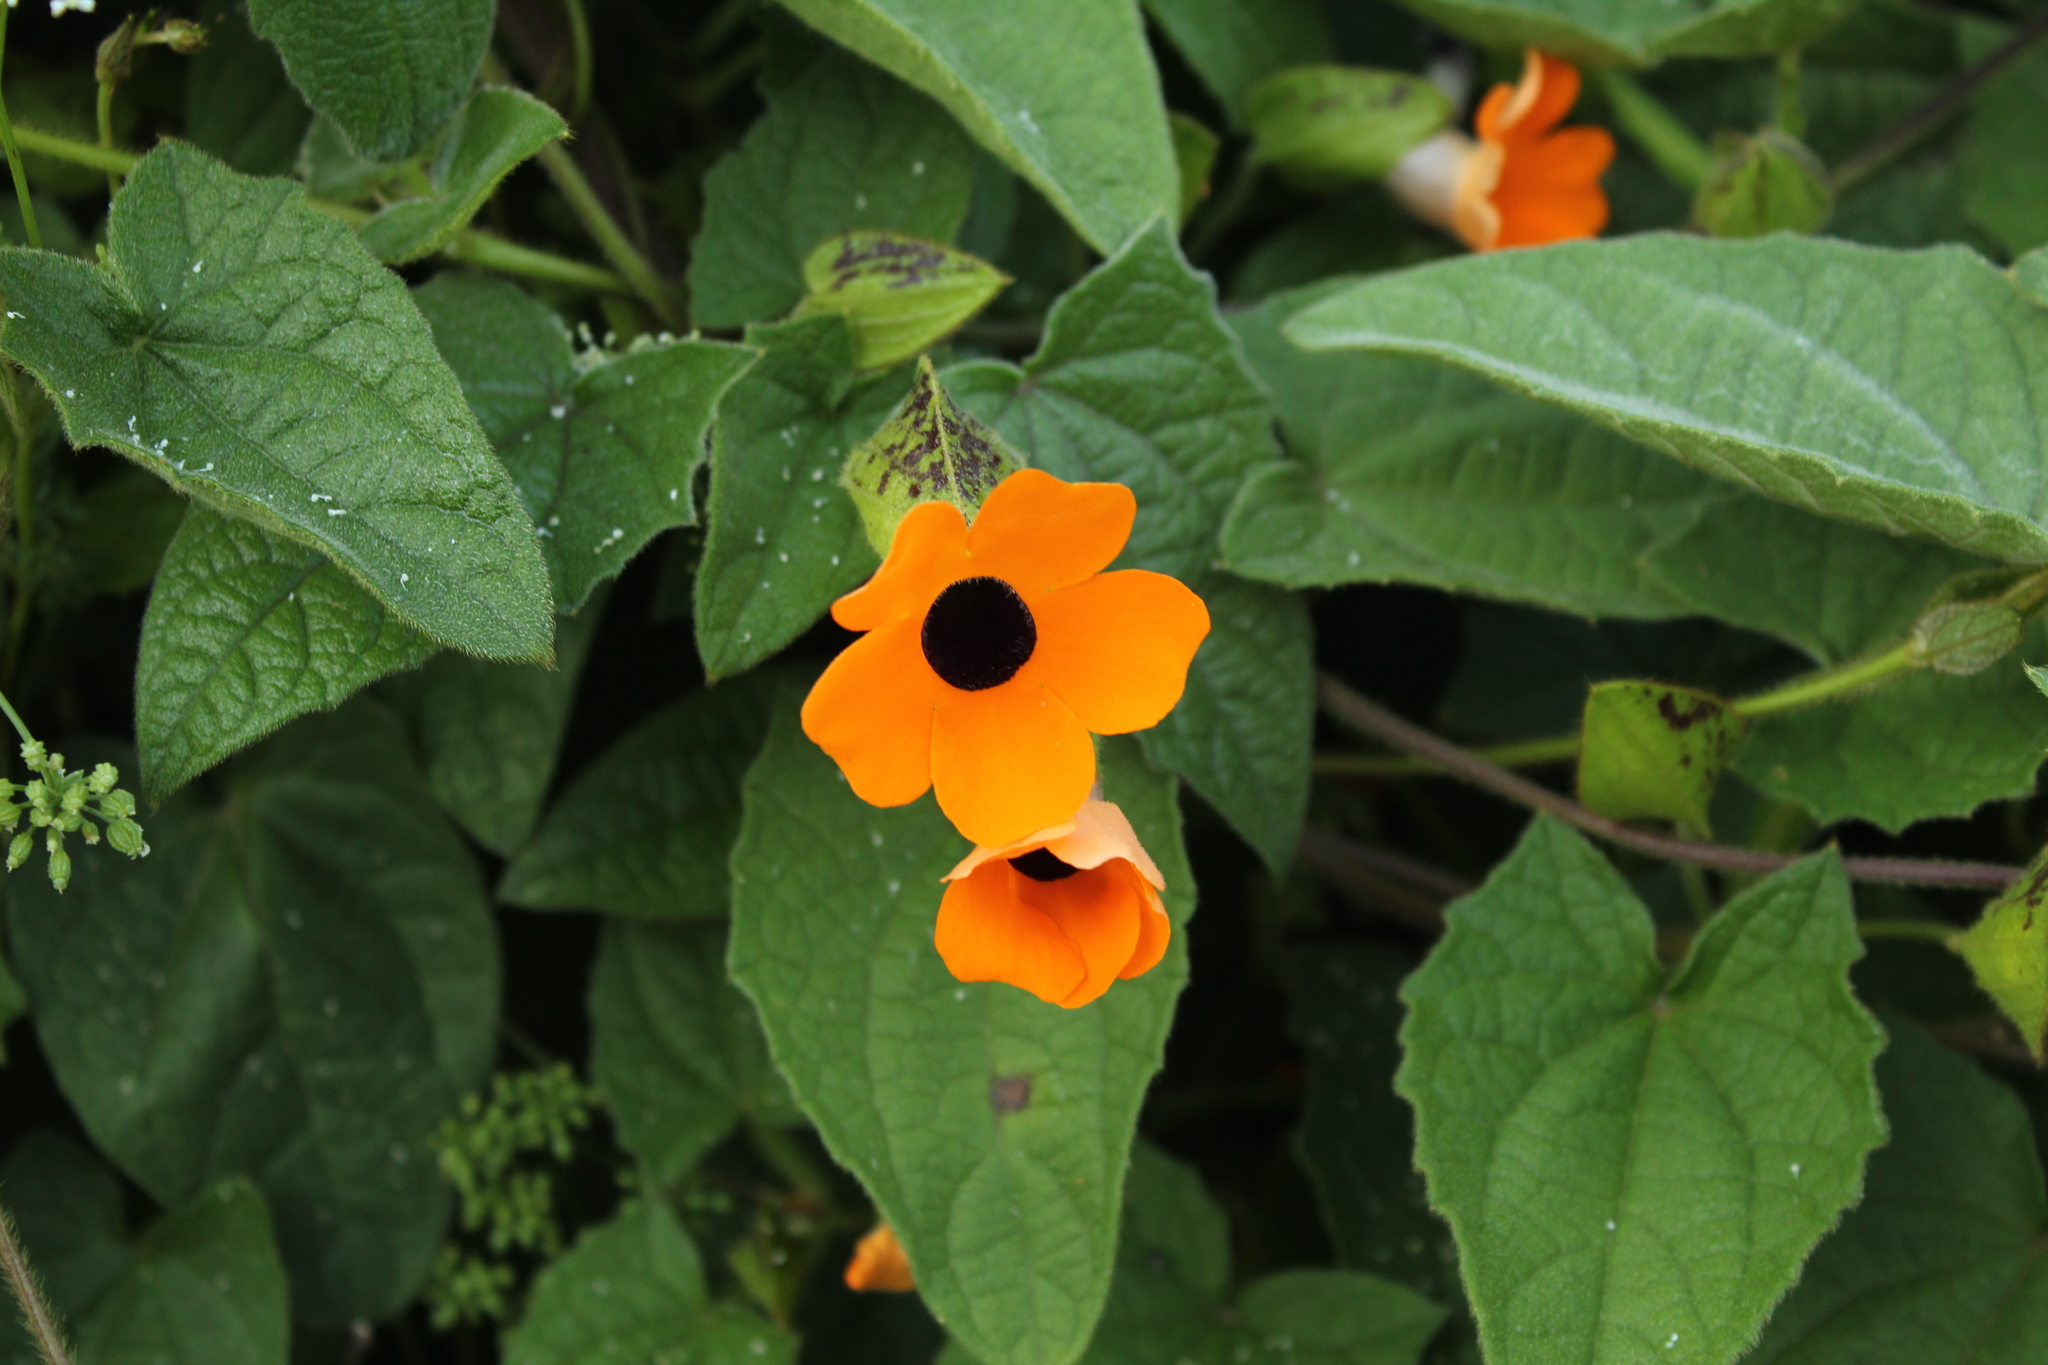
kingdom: Plantae
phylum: Tracheophyta
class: Magnoliopsida
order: Lamiales
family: Acanthaceae
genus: Thunbergia
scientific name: Thunbergia alata
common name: Blackeyed susan vine
